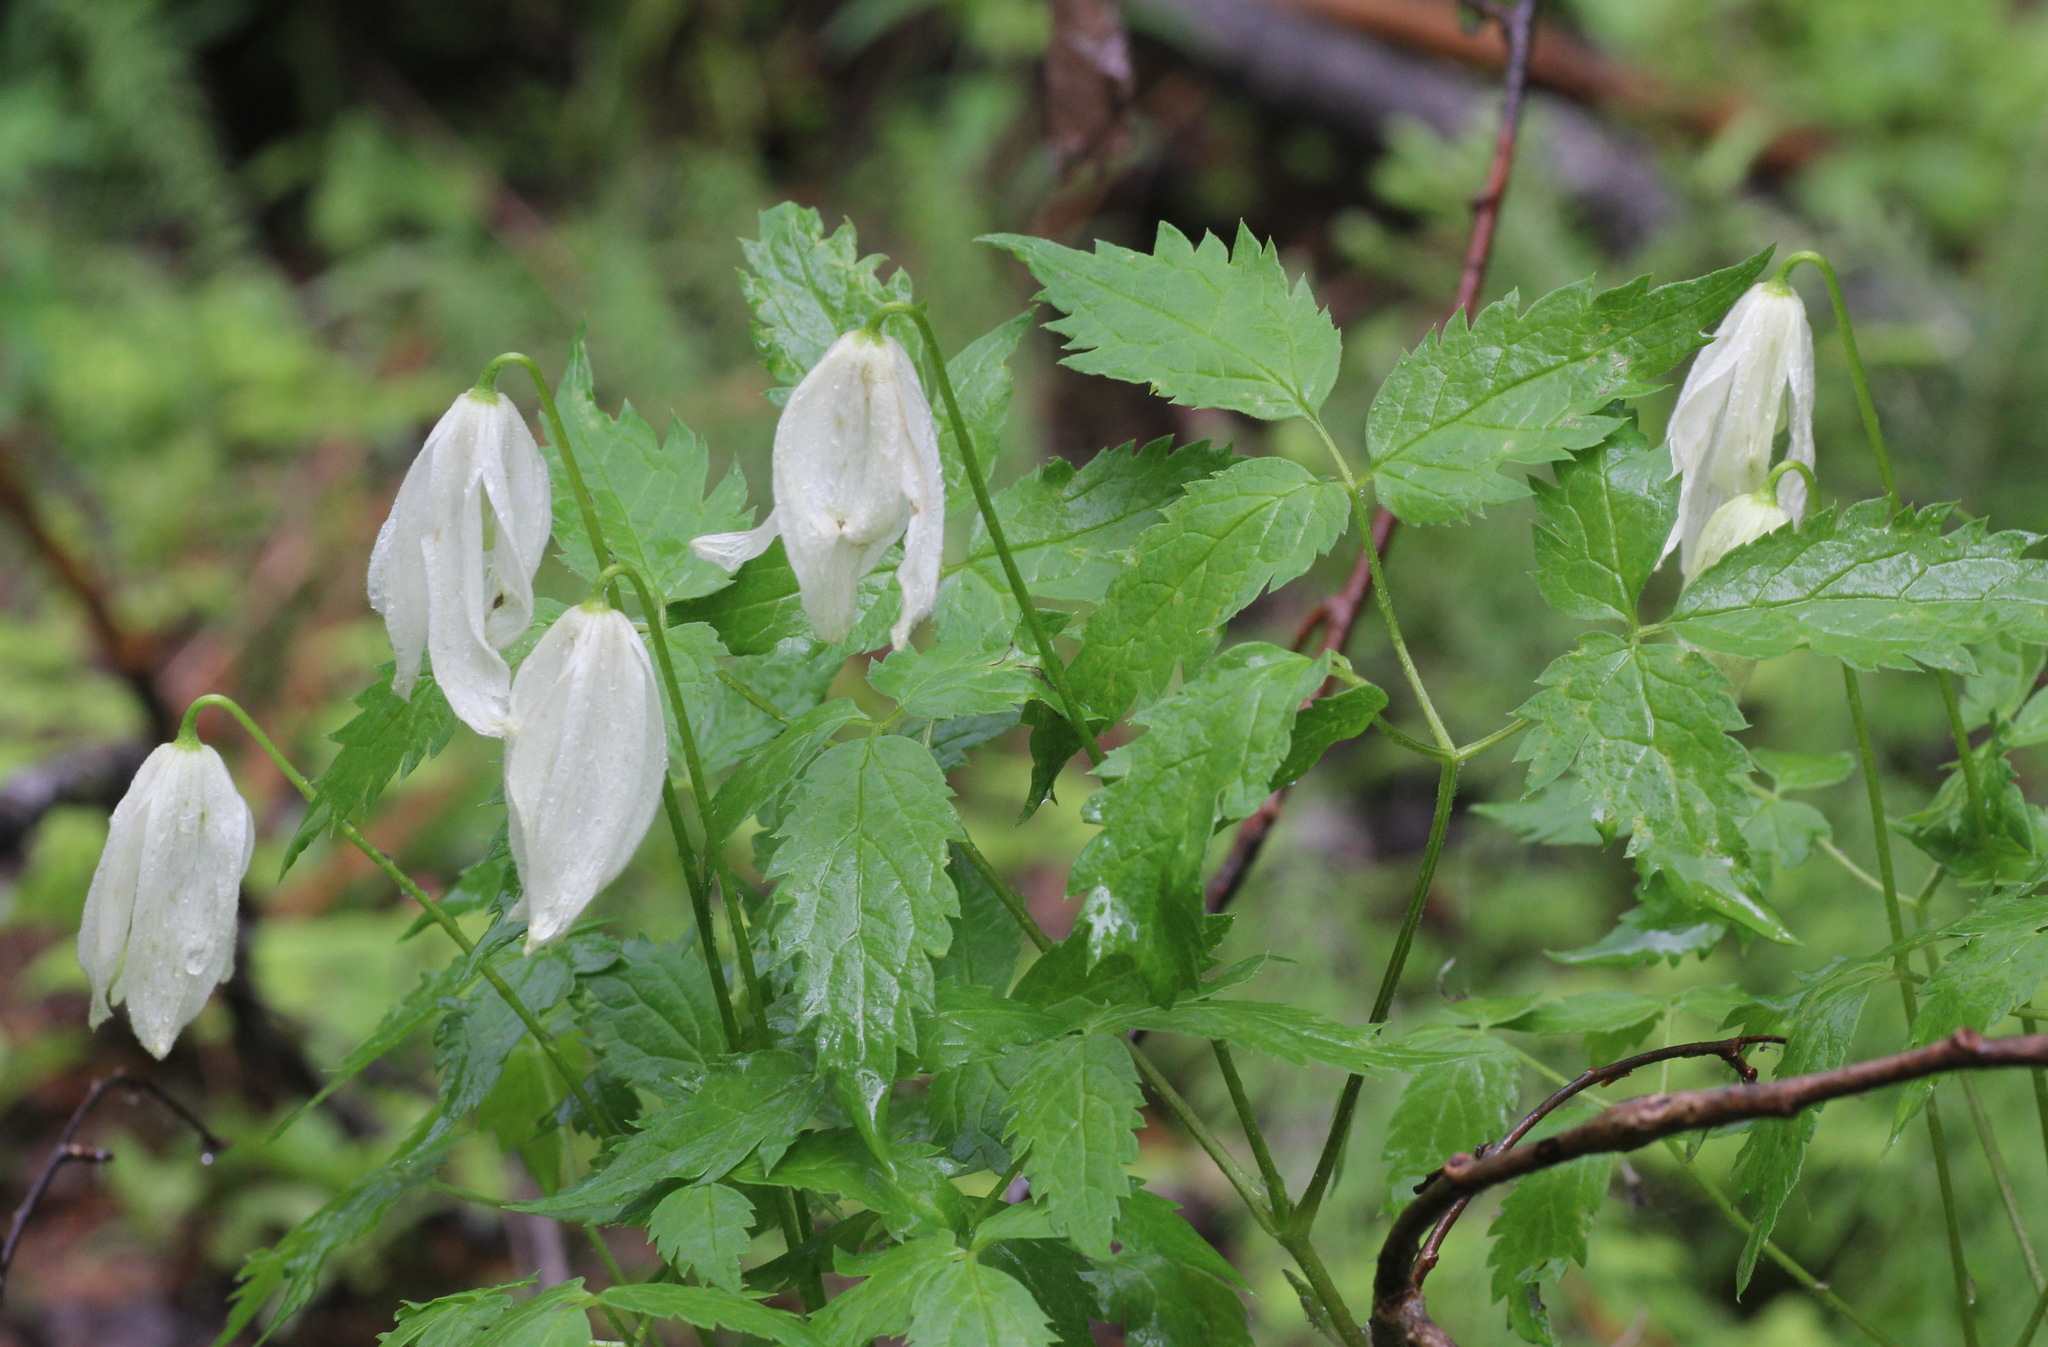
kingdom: Plantae
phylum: Tracheophyta
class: Magnoliopsida
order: Ranunculales
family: Ranunculaceae
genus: Clematis
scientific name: Clematis sibirica
